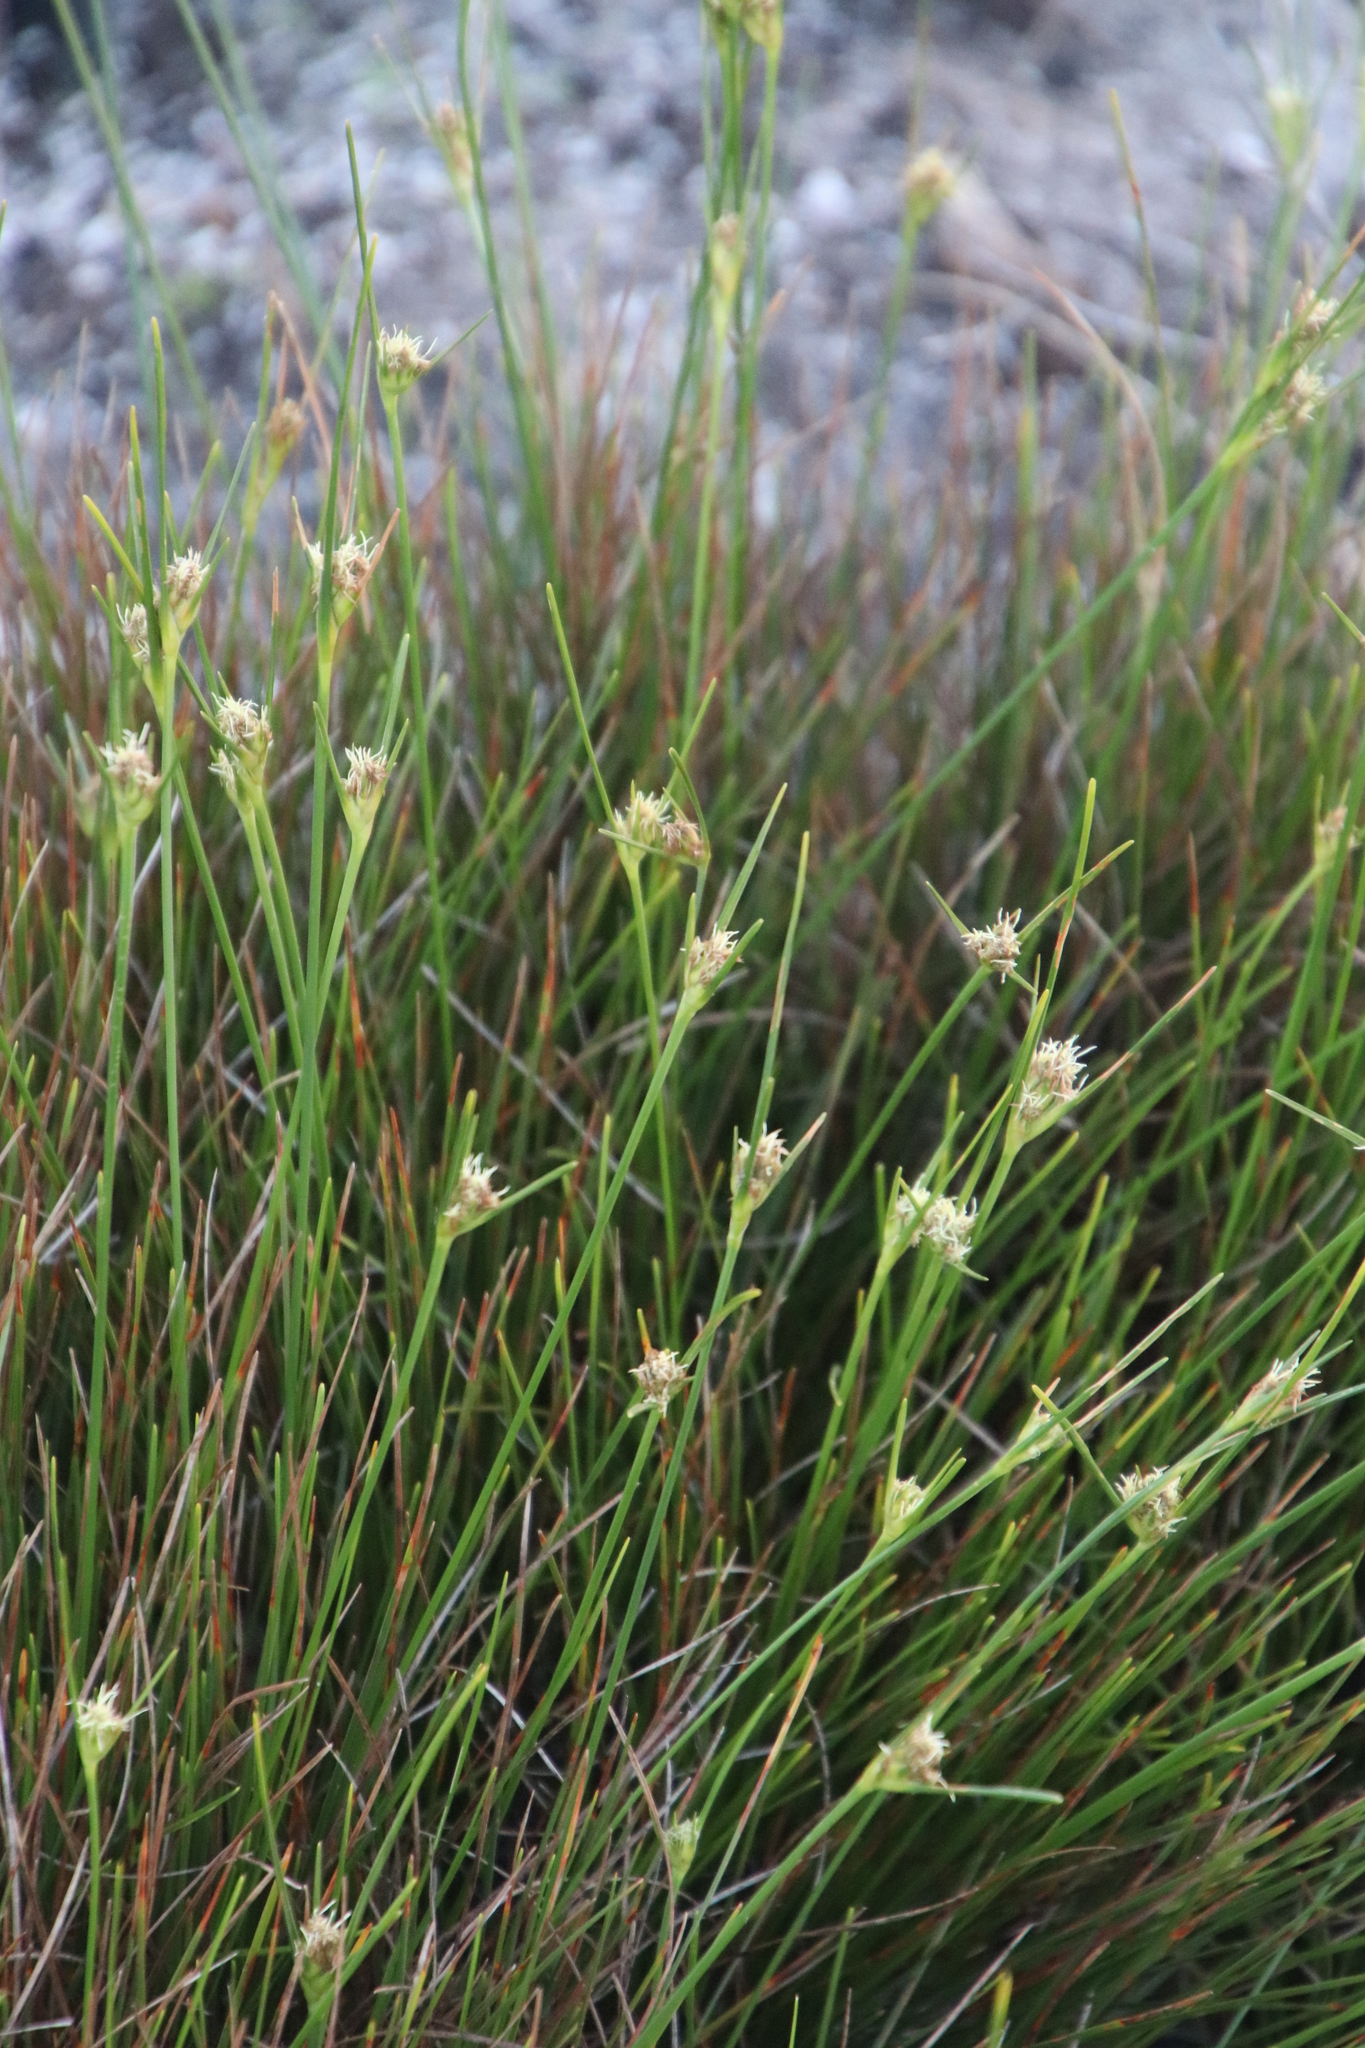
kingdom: Plantae
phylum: Tracheophyta
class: Liliopsida
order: Poales
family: Cyperaceae
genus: Ficinia
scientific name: Ficinia pallens
